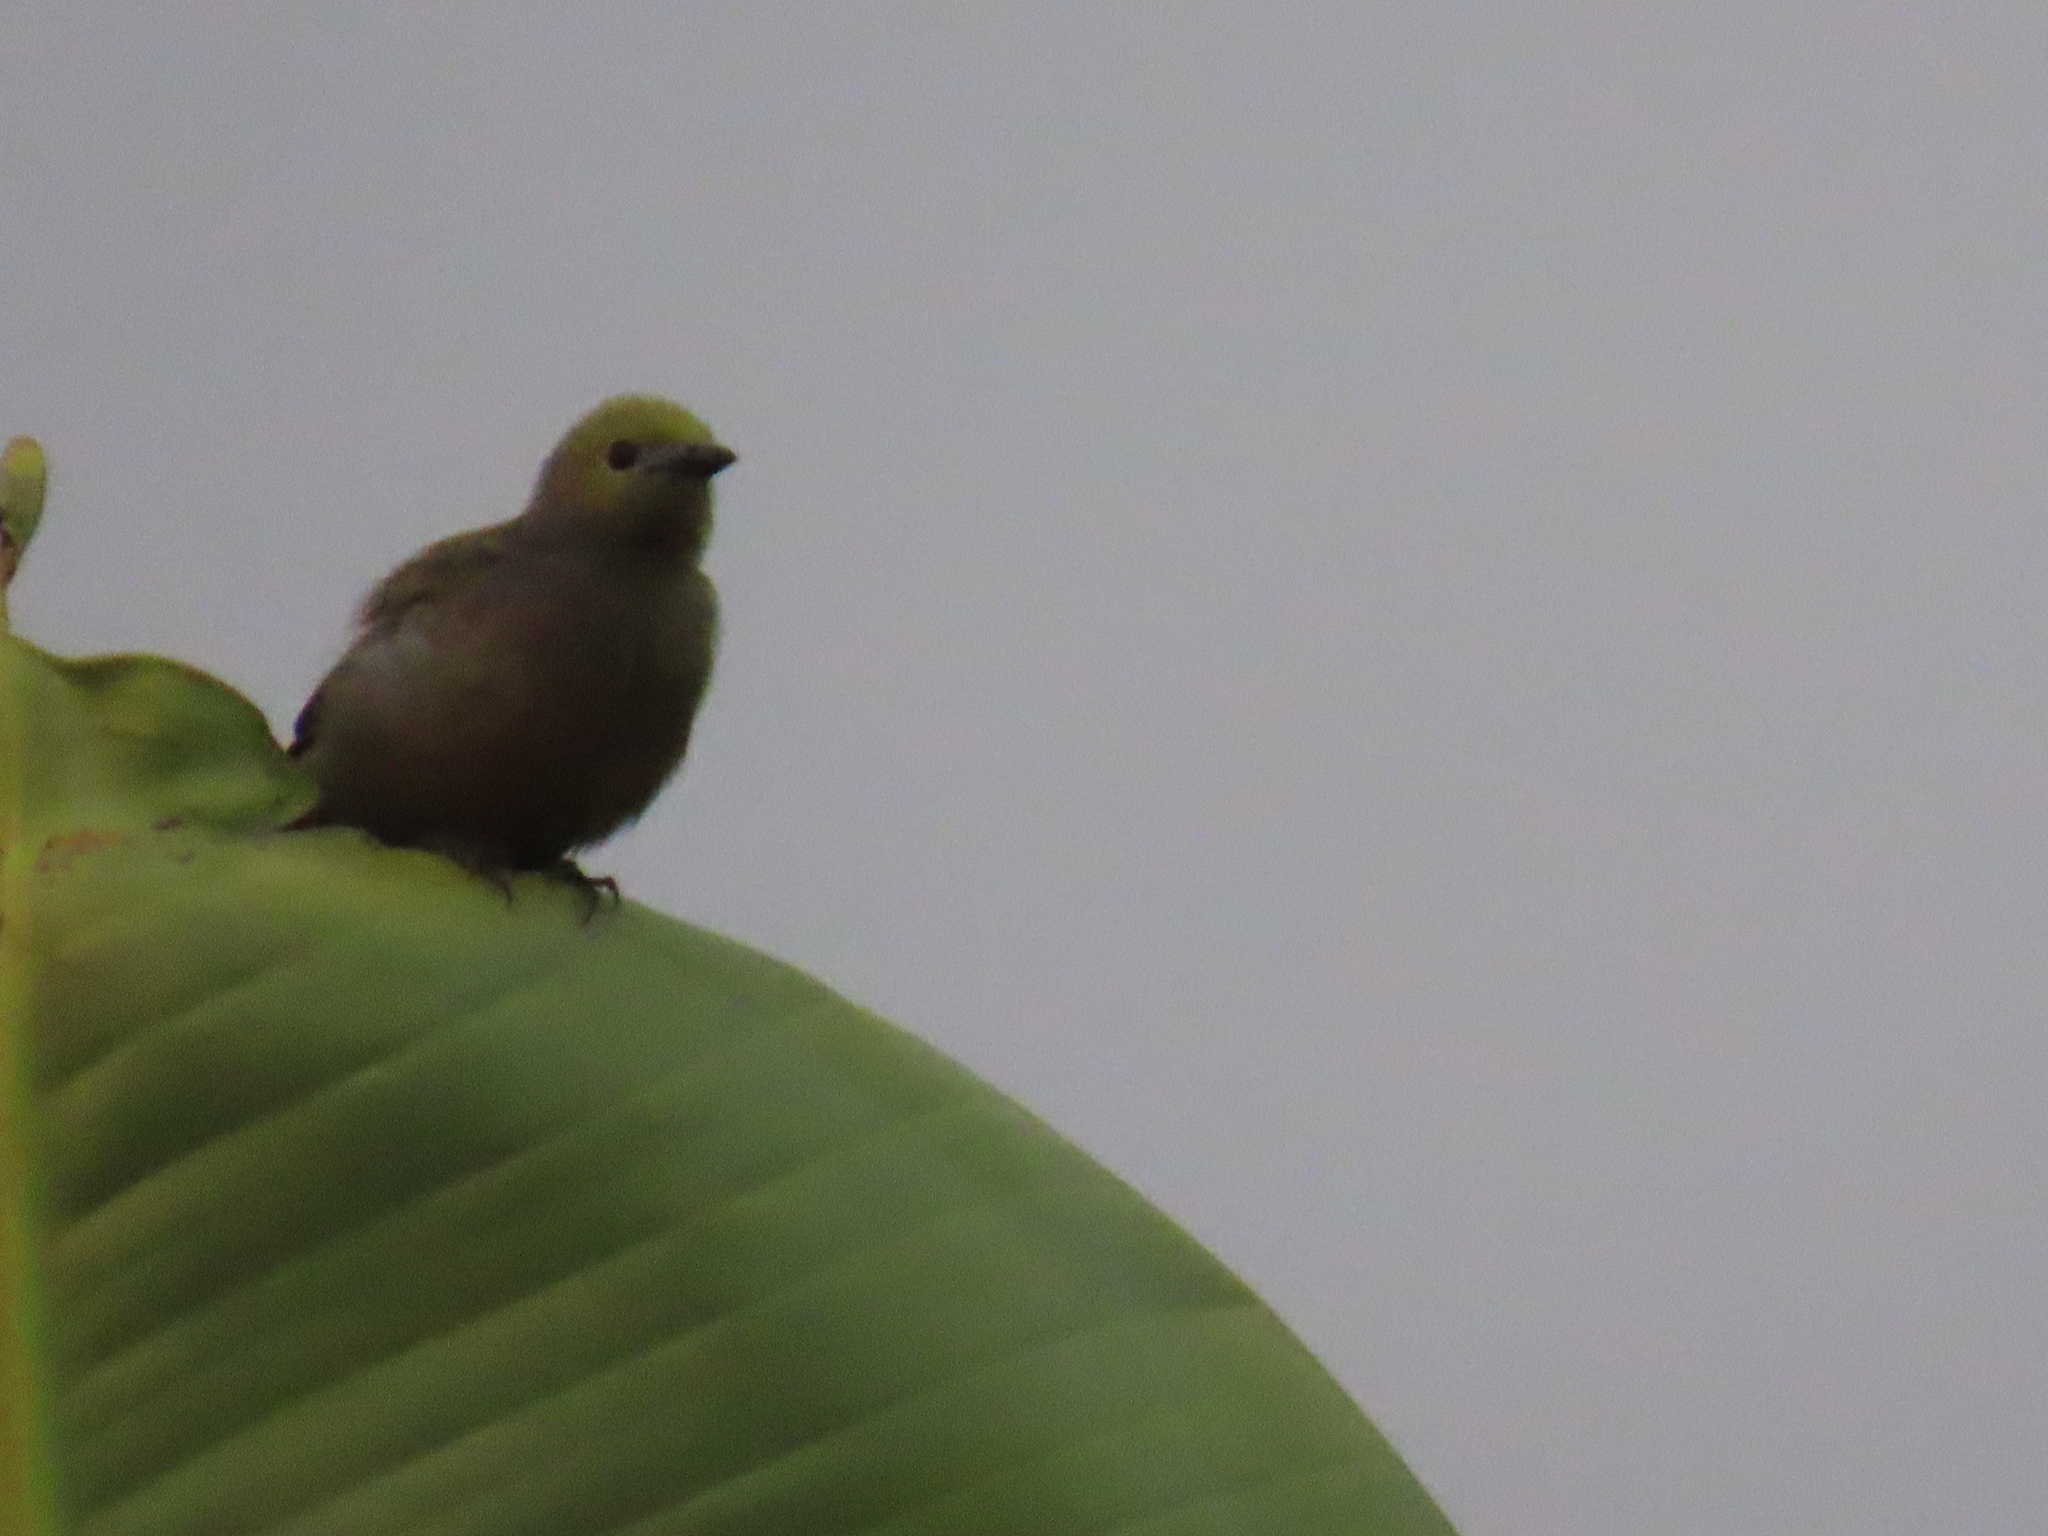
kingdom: Animalia
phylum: Chordata
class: Aves
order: Passeriformes
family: Thraupidae
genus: Thraupis
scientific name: Thraupis palmarum
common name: Palm tanager
